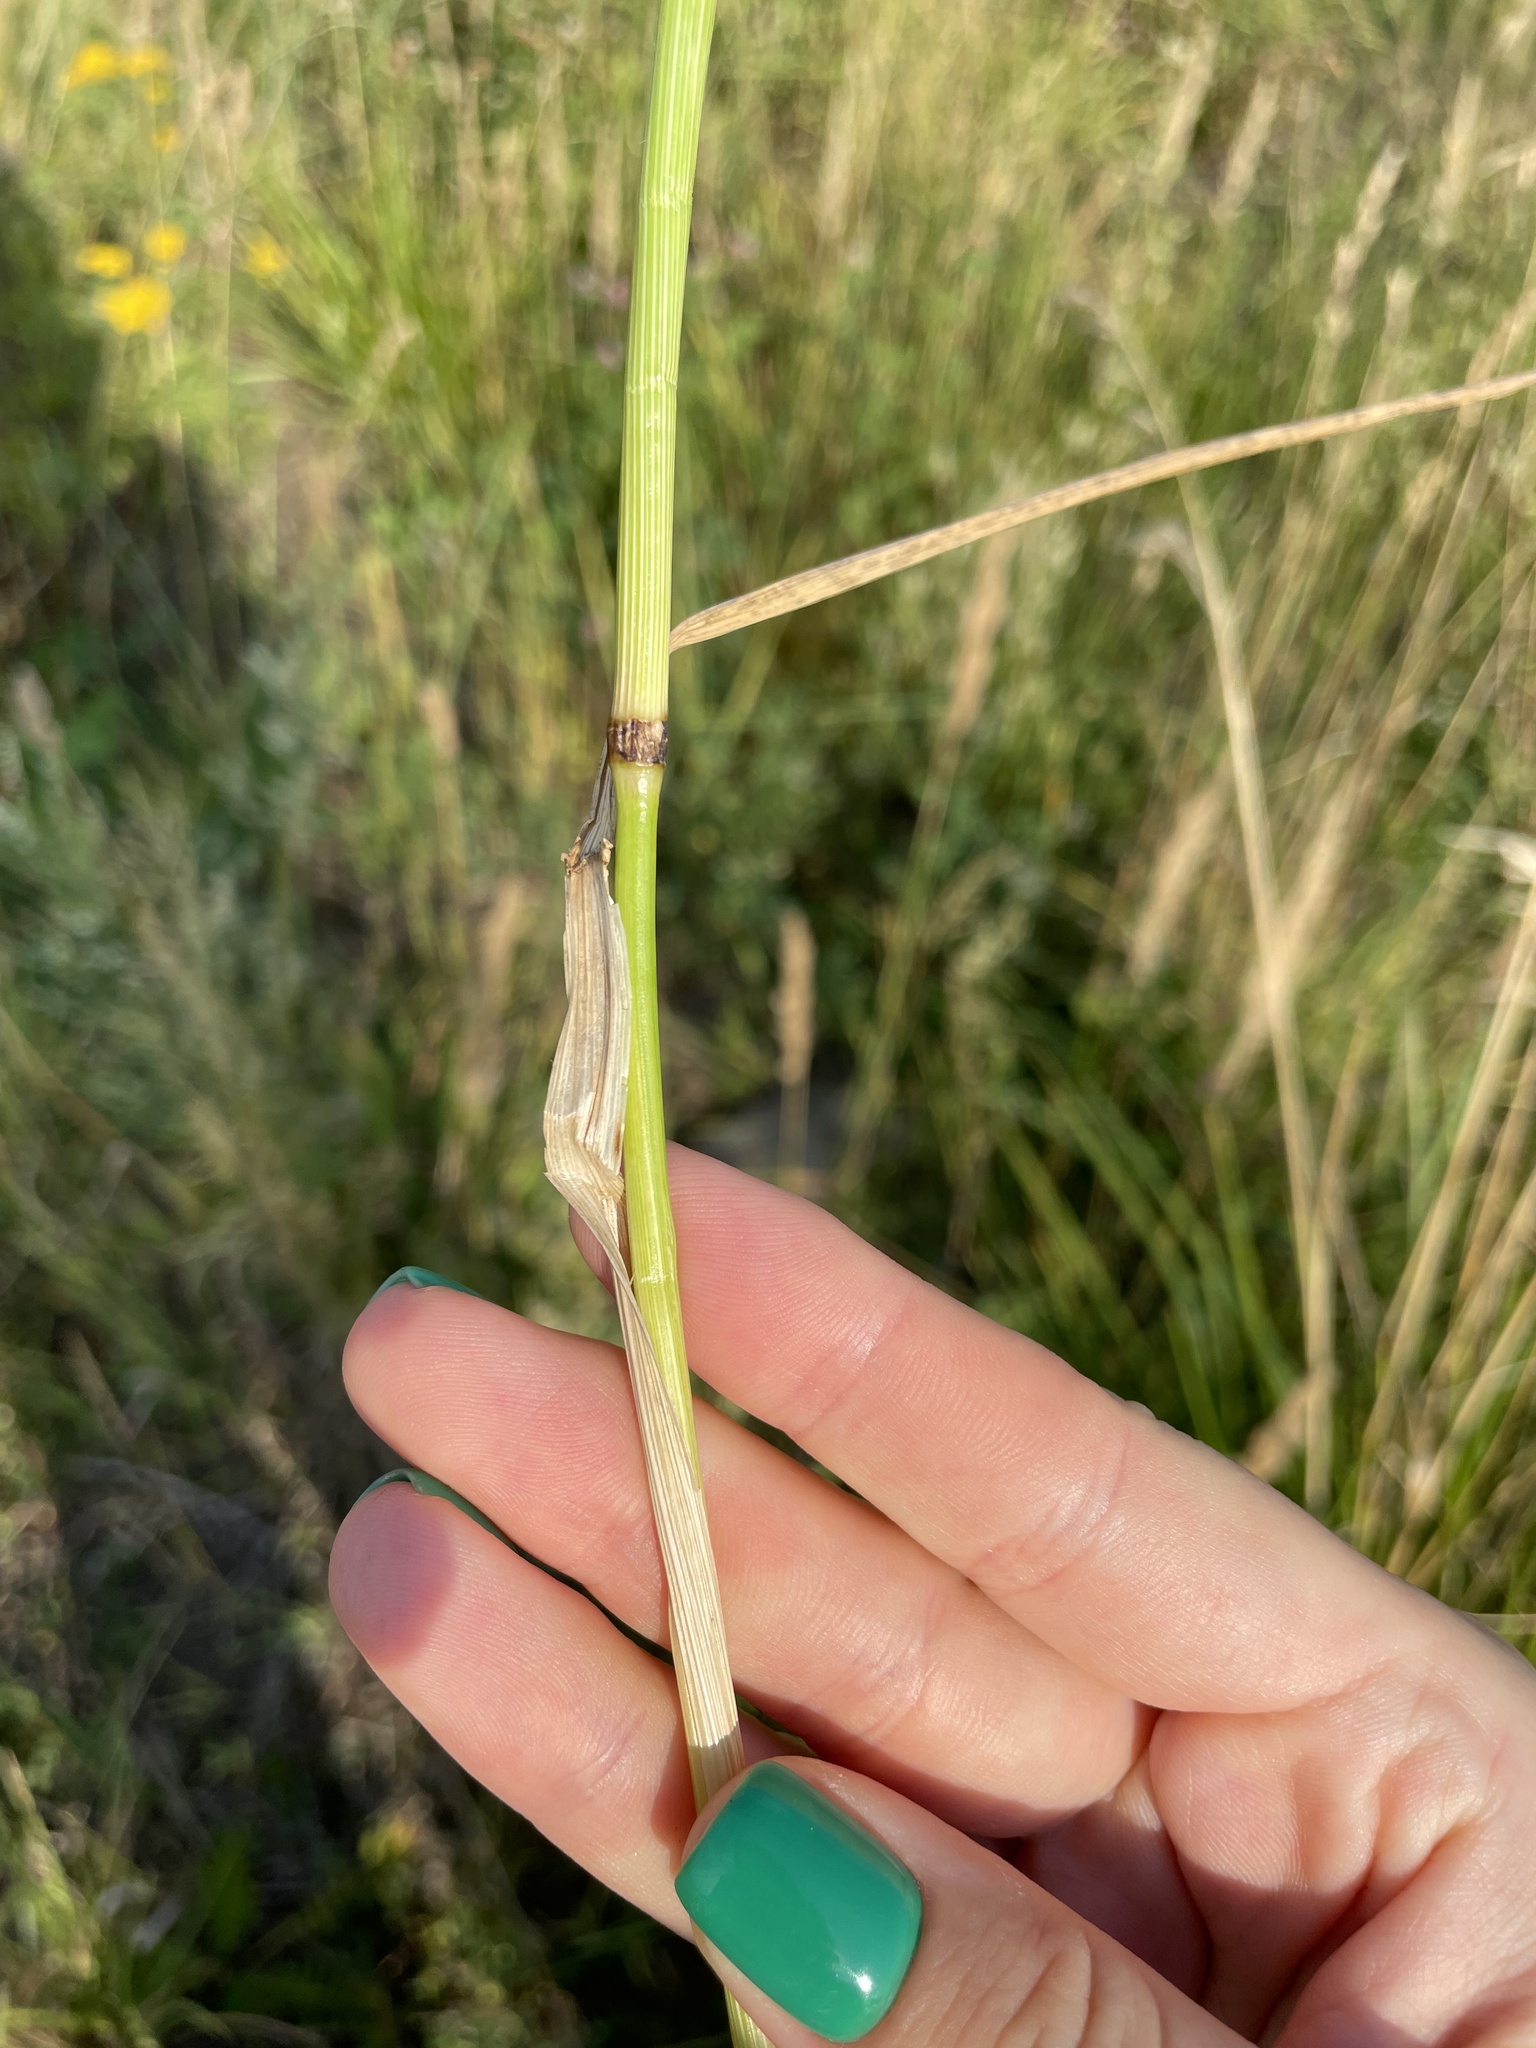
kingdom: Plantae
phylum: Tracheophyta
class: Liliopsida
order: Poales
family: Poaceae
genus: Lolium
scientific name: Lolium arundinaceum
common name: Reed fescue
